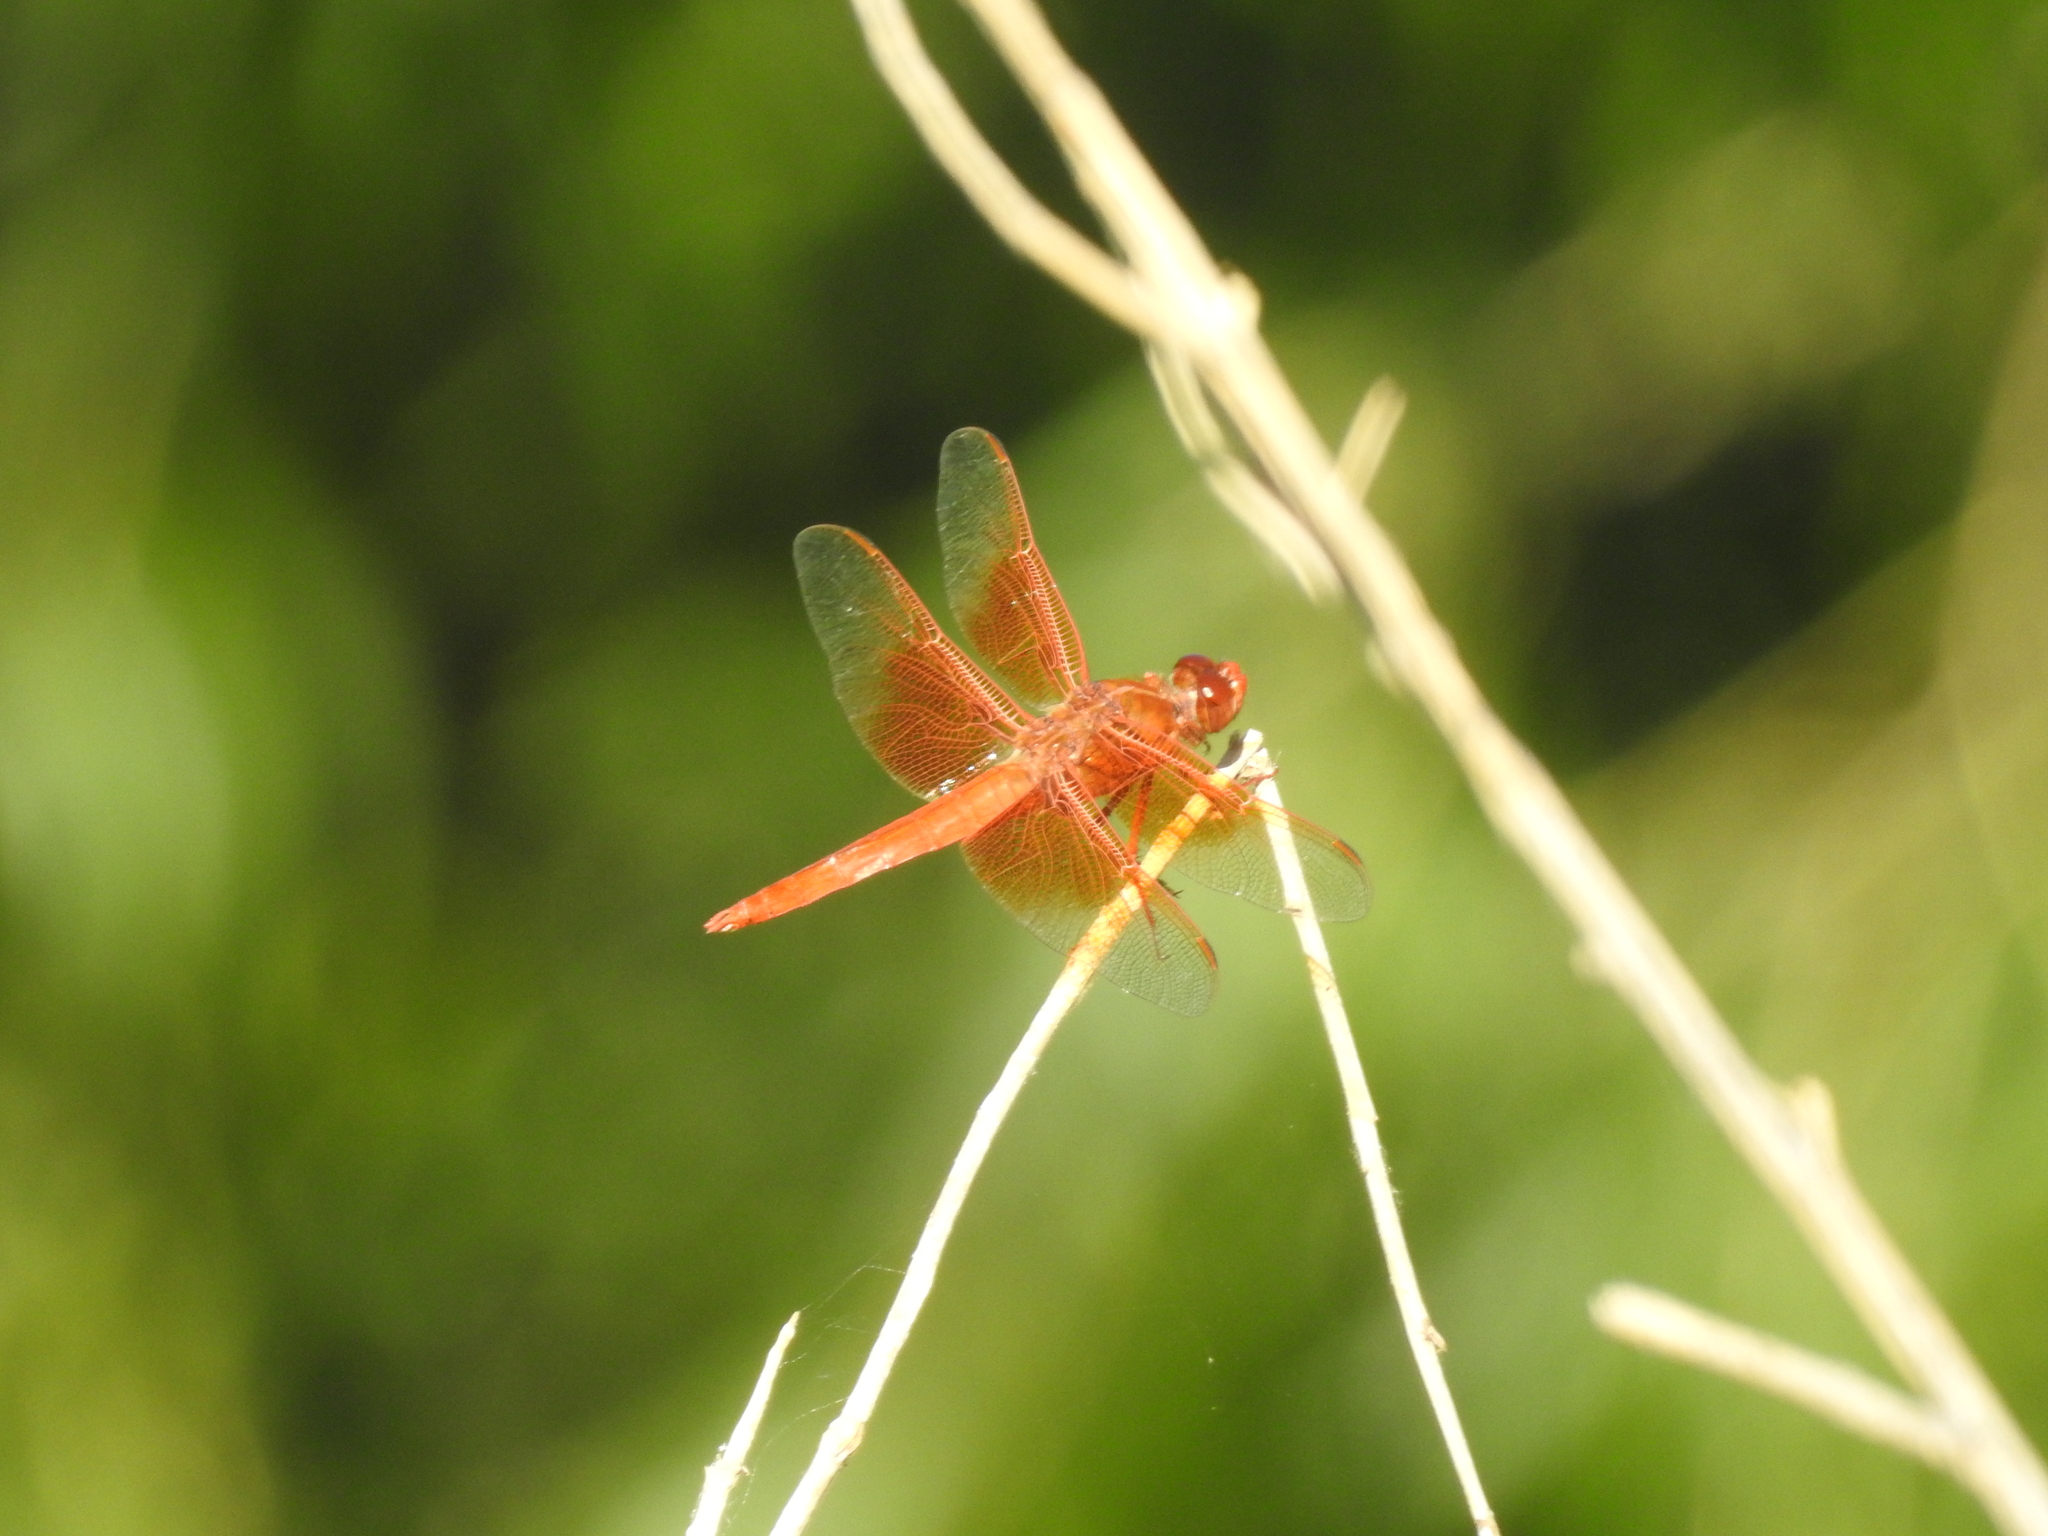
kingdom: Animalia
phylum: Arthropoda
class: Insecta
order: Odonata
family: Libellulidae
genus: Libellula
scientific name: Libellula saturata
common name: Flame skimmer
